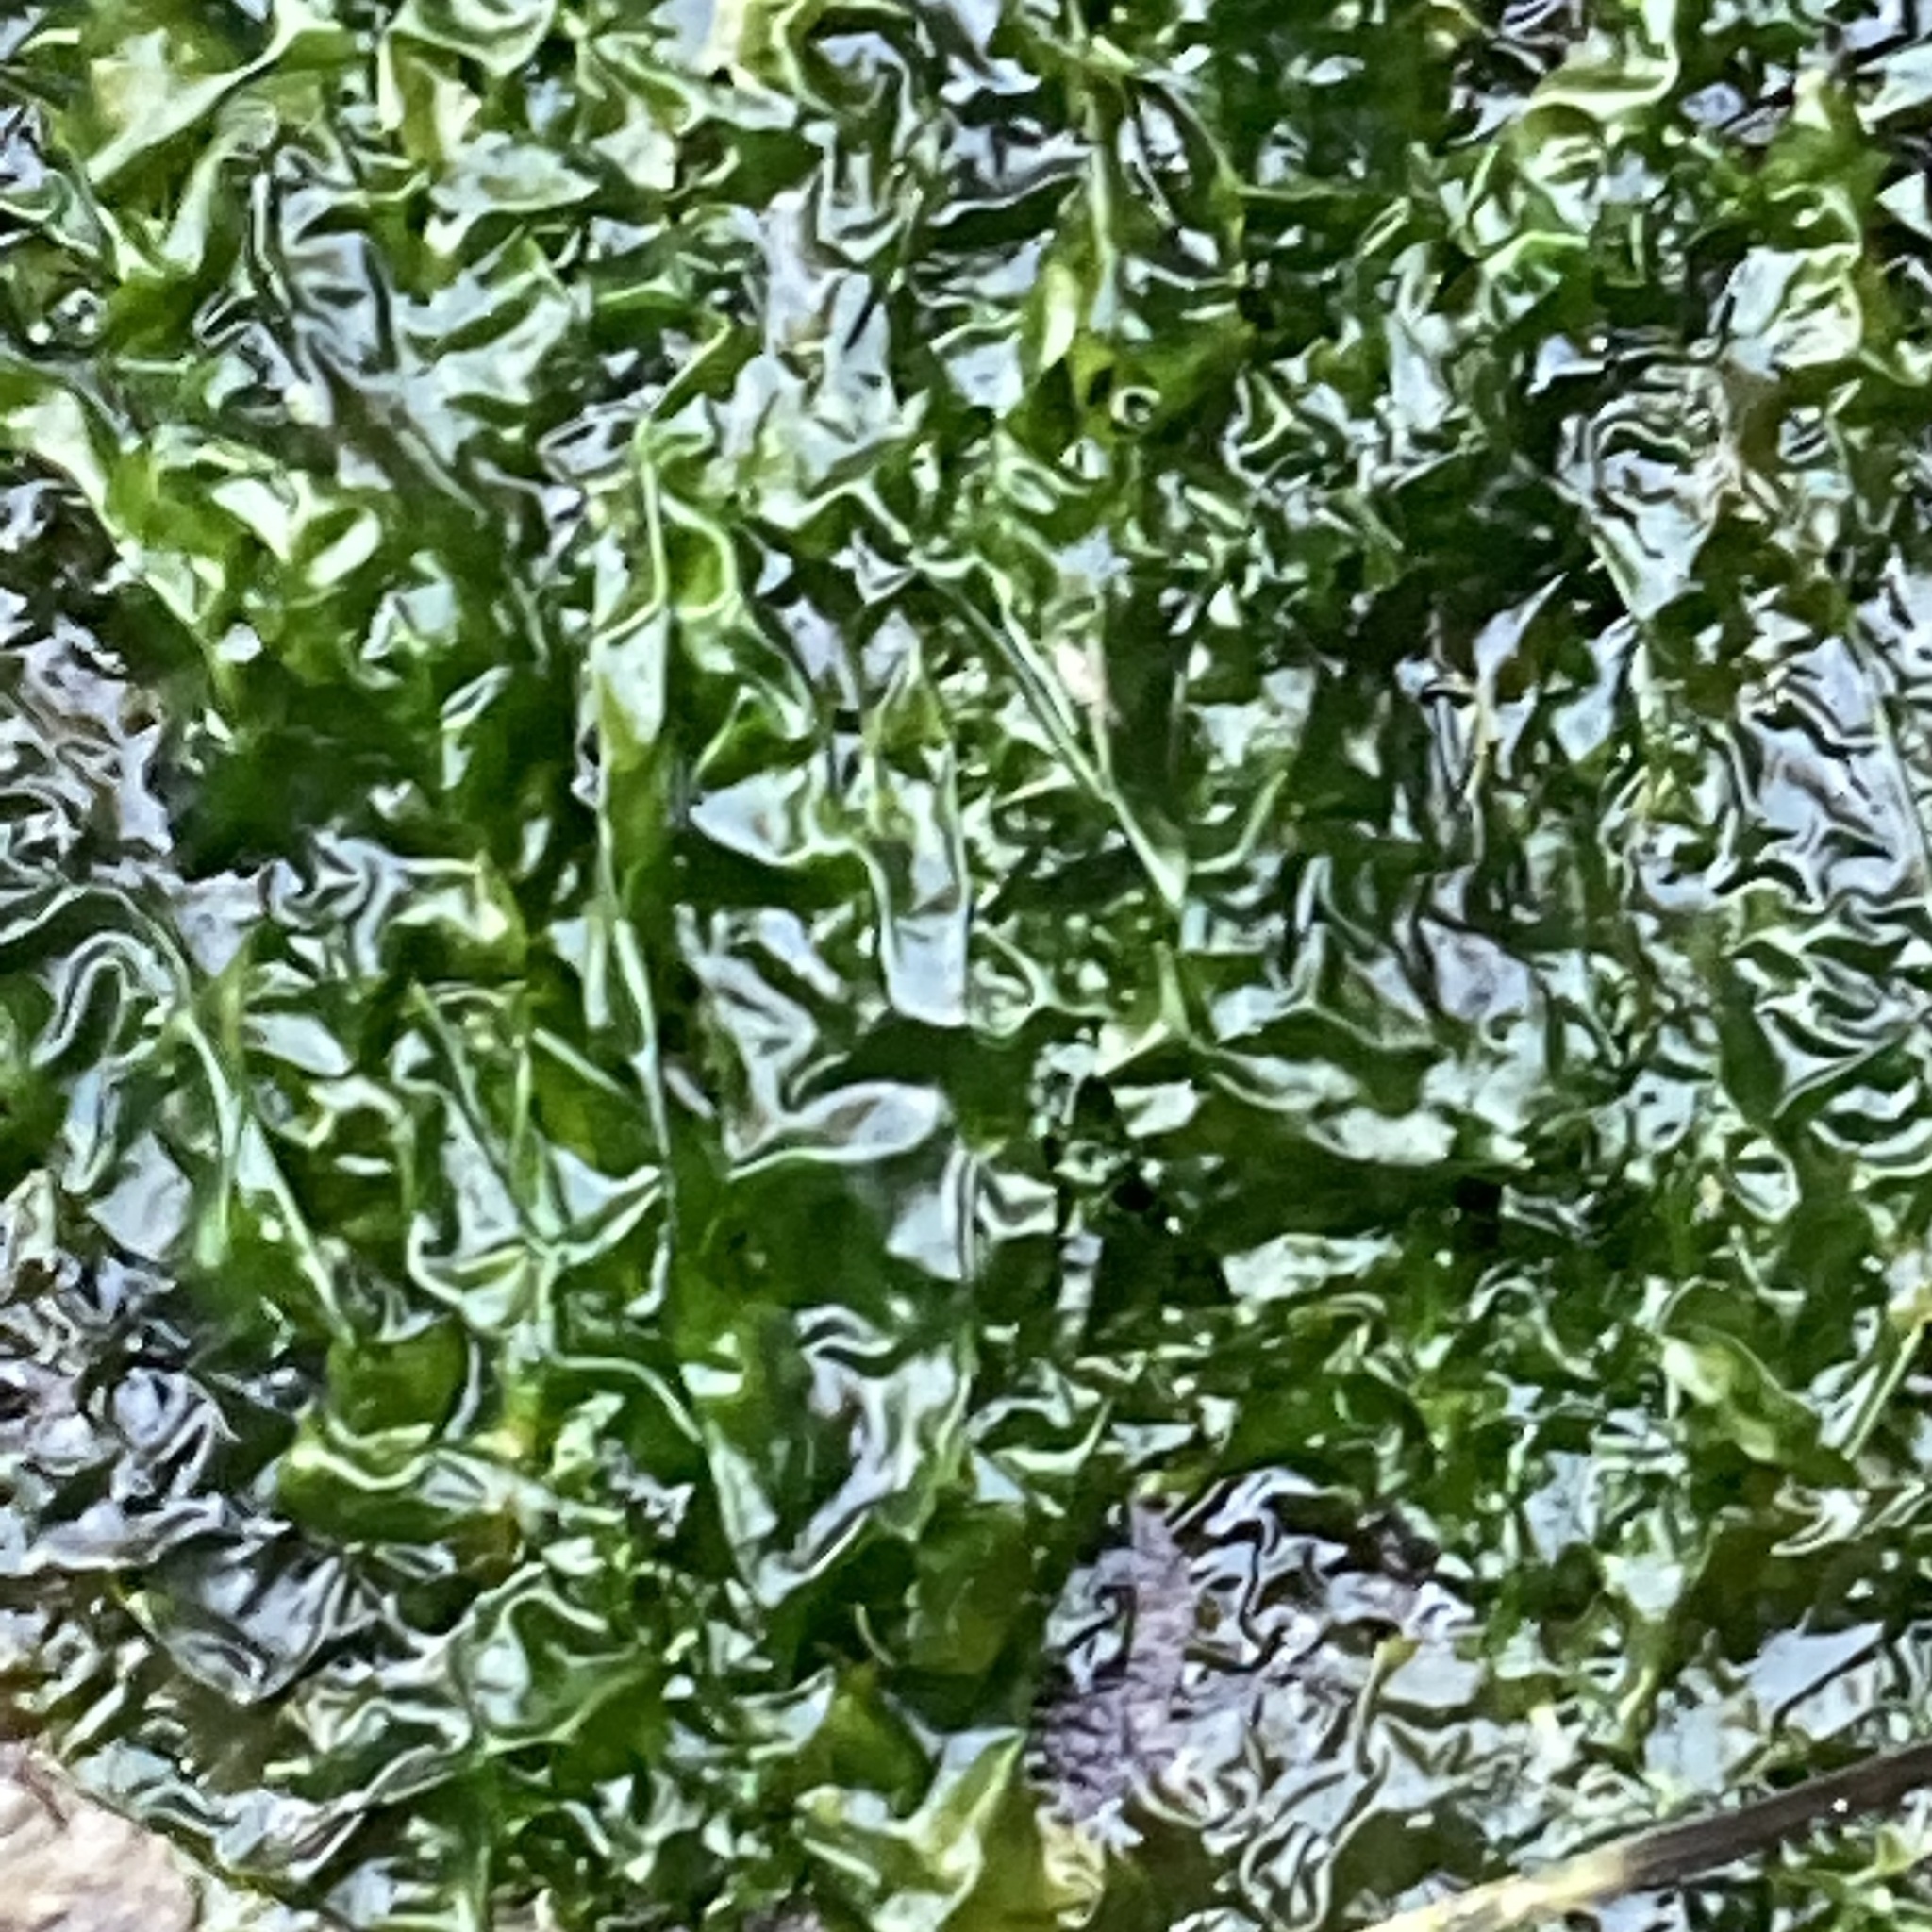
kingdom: Plantae
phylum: Chlorophyta
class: Ulvophyceae
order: Ulvales
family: Ulvaceae
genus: Ulva
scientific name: Ulva lactuca
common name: Sea lettuce
